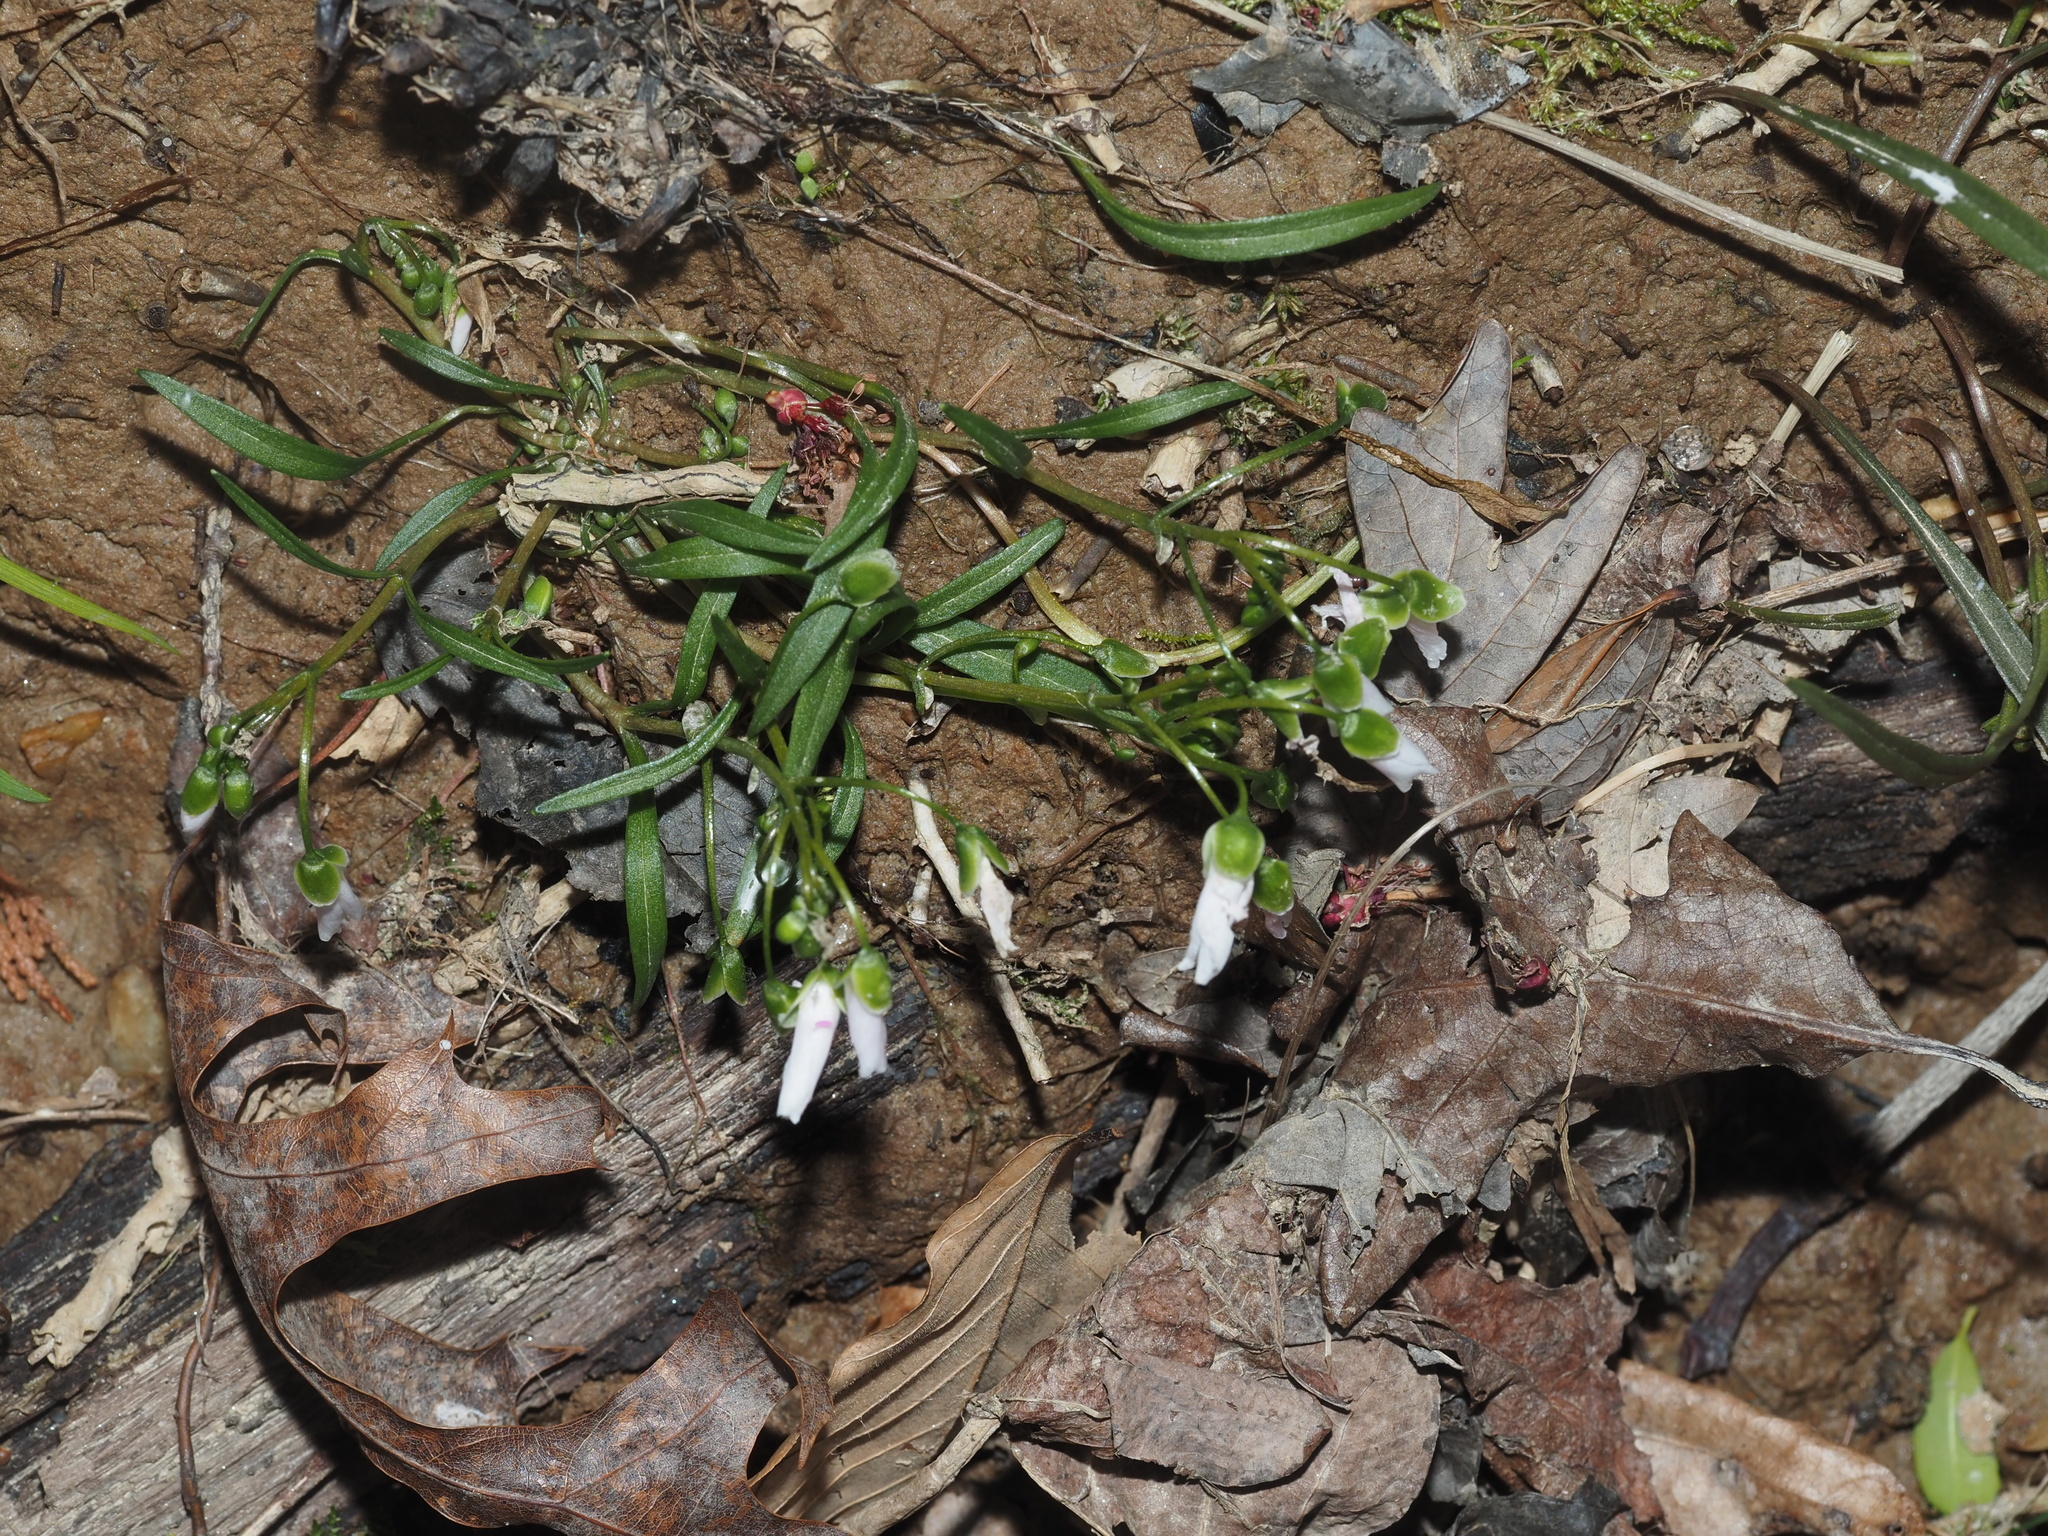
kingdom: Plantae
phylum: Tracheophyta
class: Magnoliopsida
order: Caryophyllales
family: Montiaceae
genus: Claytonia
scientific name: Claytonia virginica
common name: Virginia springbeauty
